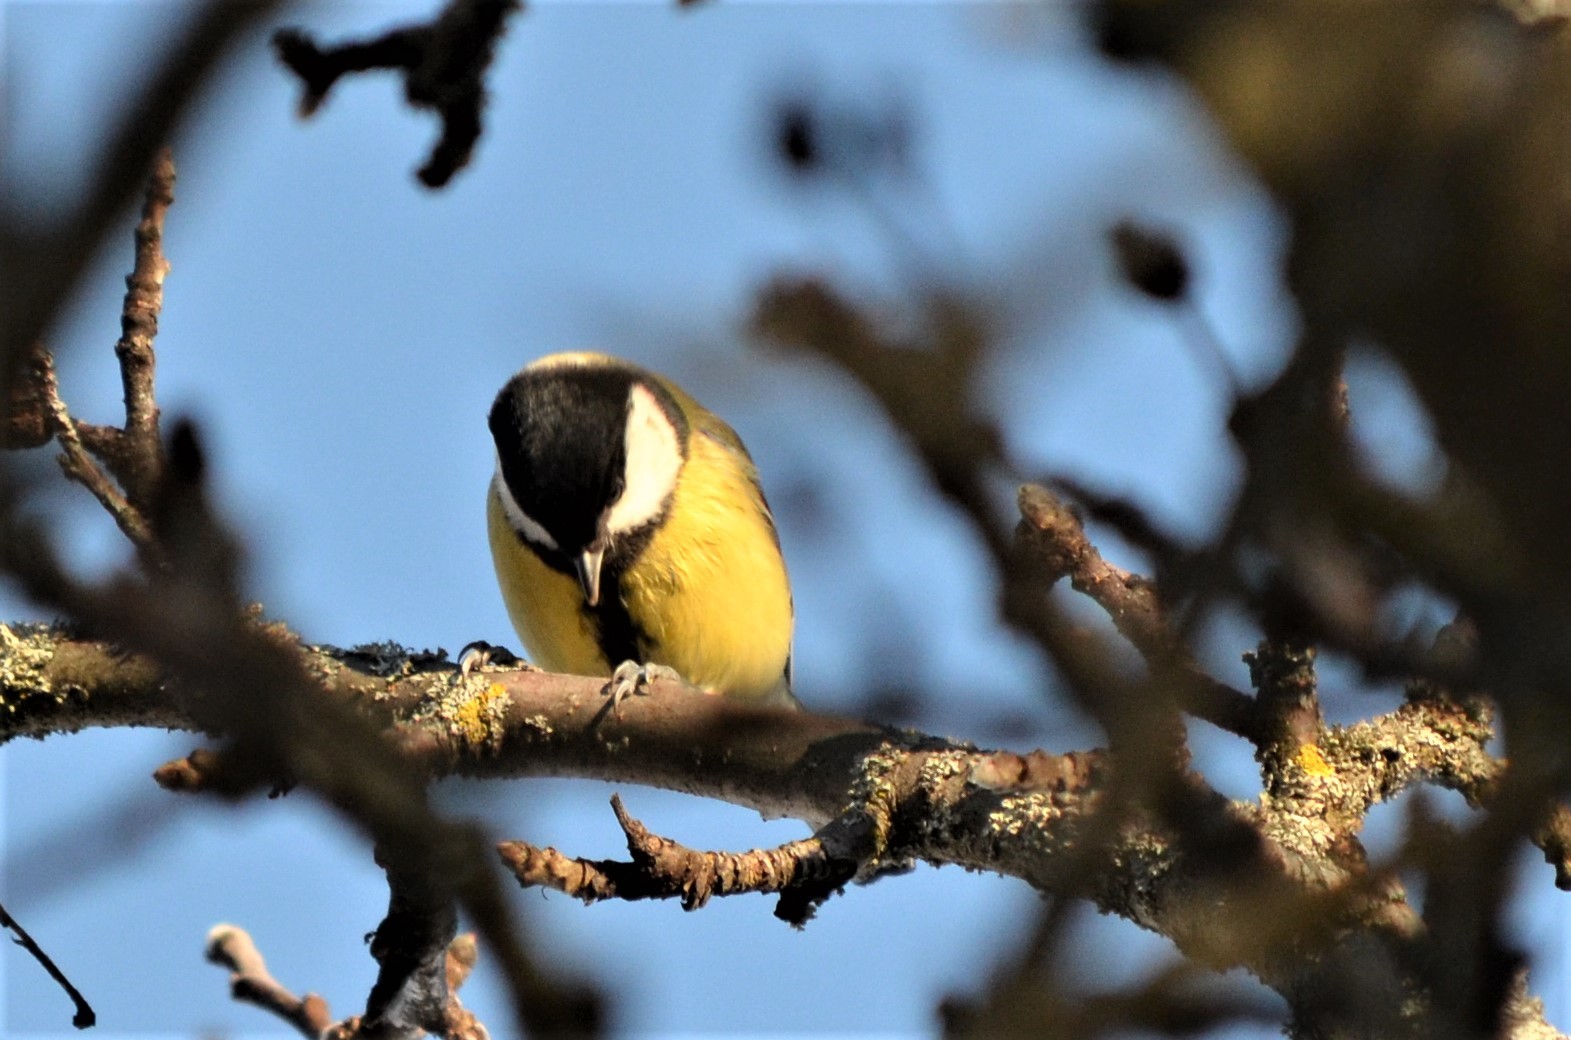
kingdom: Animalia
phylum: Chordata
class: Aves
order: Passeriformes
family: Paridae
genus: Parus
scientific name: Parus major
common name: Great tit
